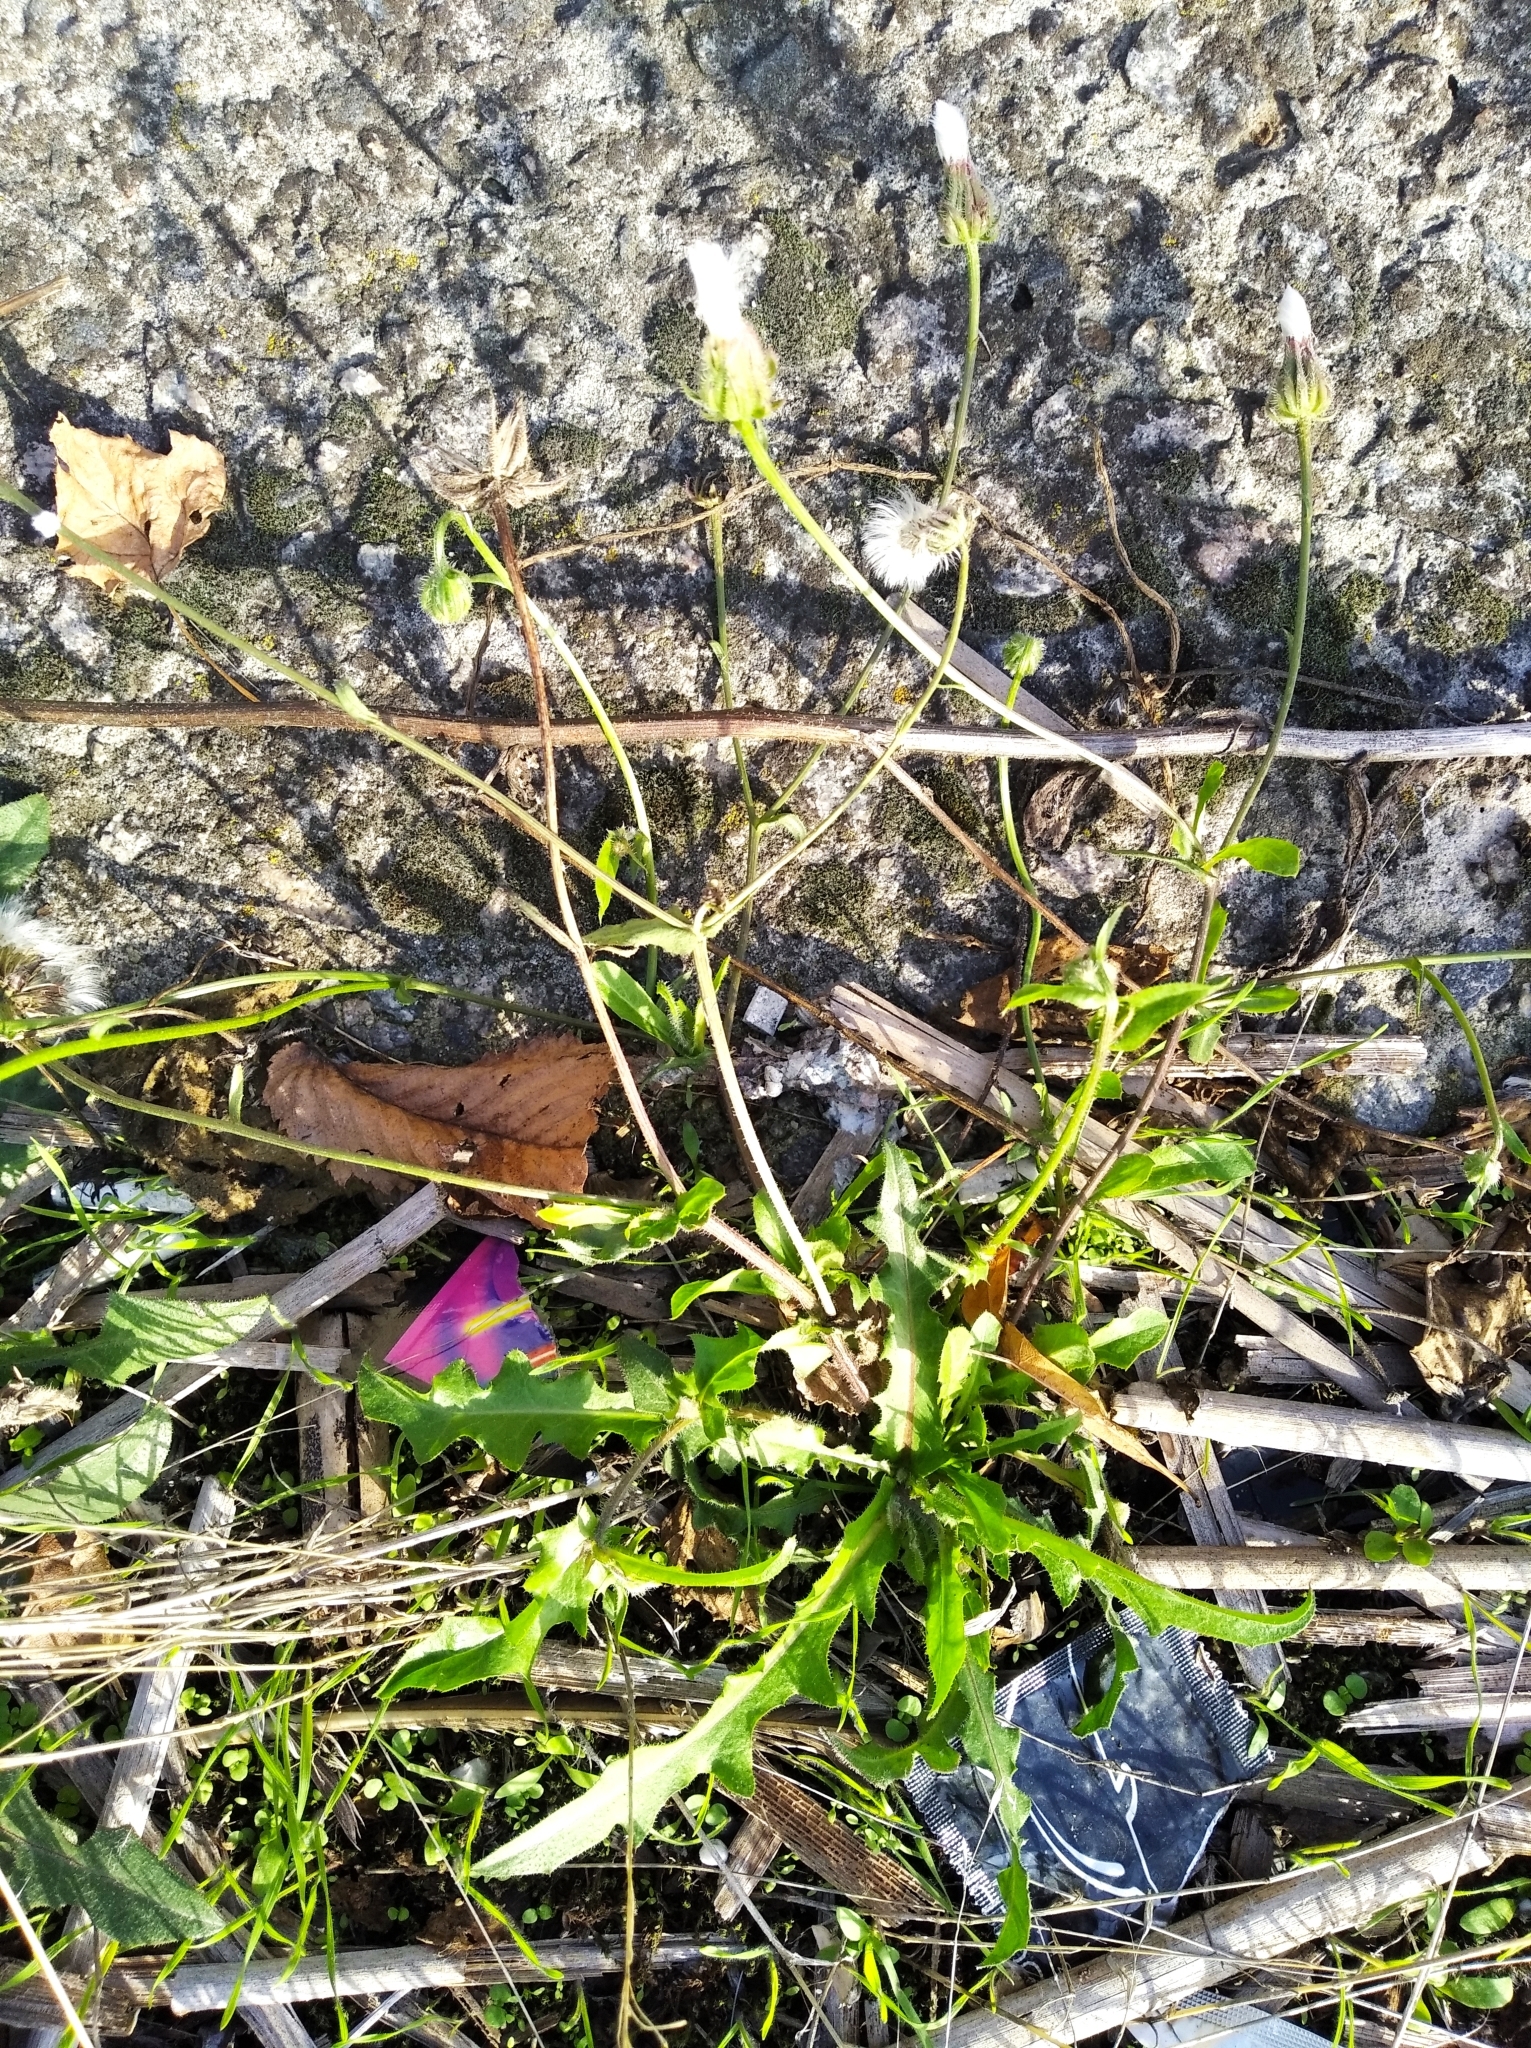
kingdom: Plantae
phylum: Tracheophyta
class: Magnoliopsida
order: Asterales
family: Asteraceae
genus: Crepis
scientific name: Crepis foetida
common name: Stinking hawk's-beard
